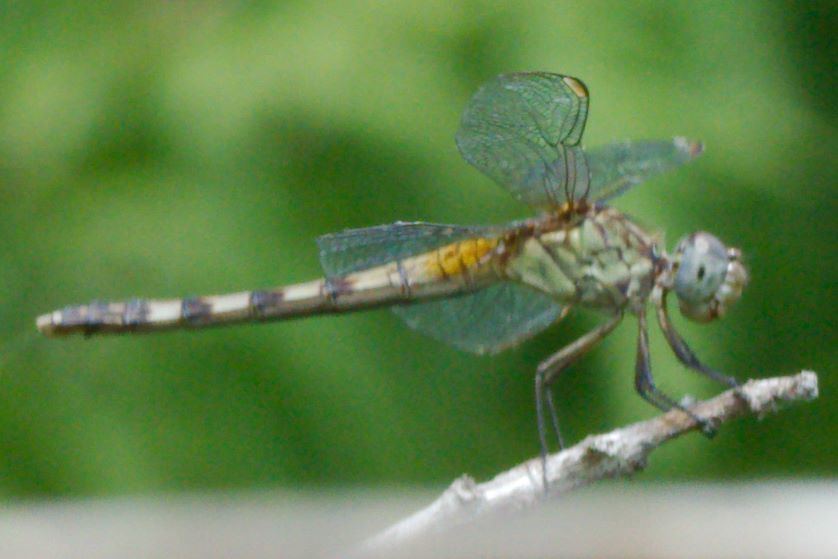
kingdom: Animalia
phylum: Arthropoda
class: Insecta
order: Odonata
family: Libellulidae
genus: Erythrodiplax
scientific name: Erythrodiplax umbrata
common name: Band-winged dragonlet
